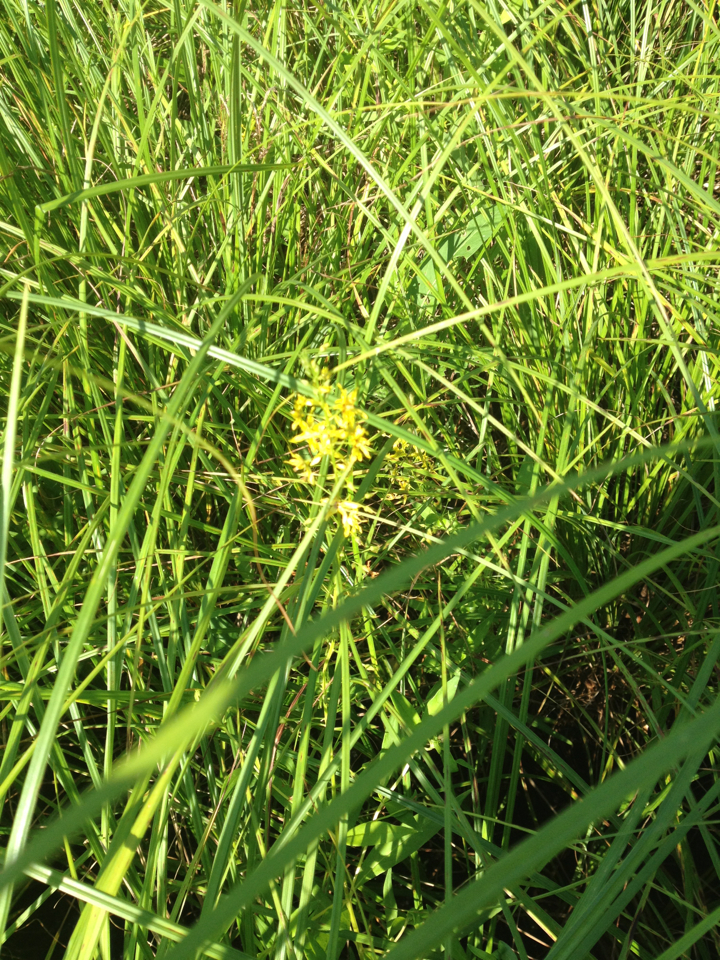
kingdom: Plantae
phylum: Tracheophyta
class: Magnoliopsida
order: Ericales
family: Primulaceae
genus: Lysimachia
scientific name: Lysimachia terrestris
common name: Lake loosestrife
